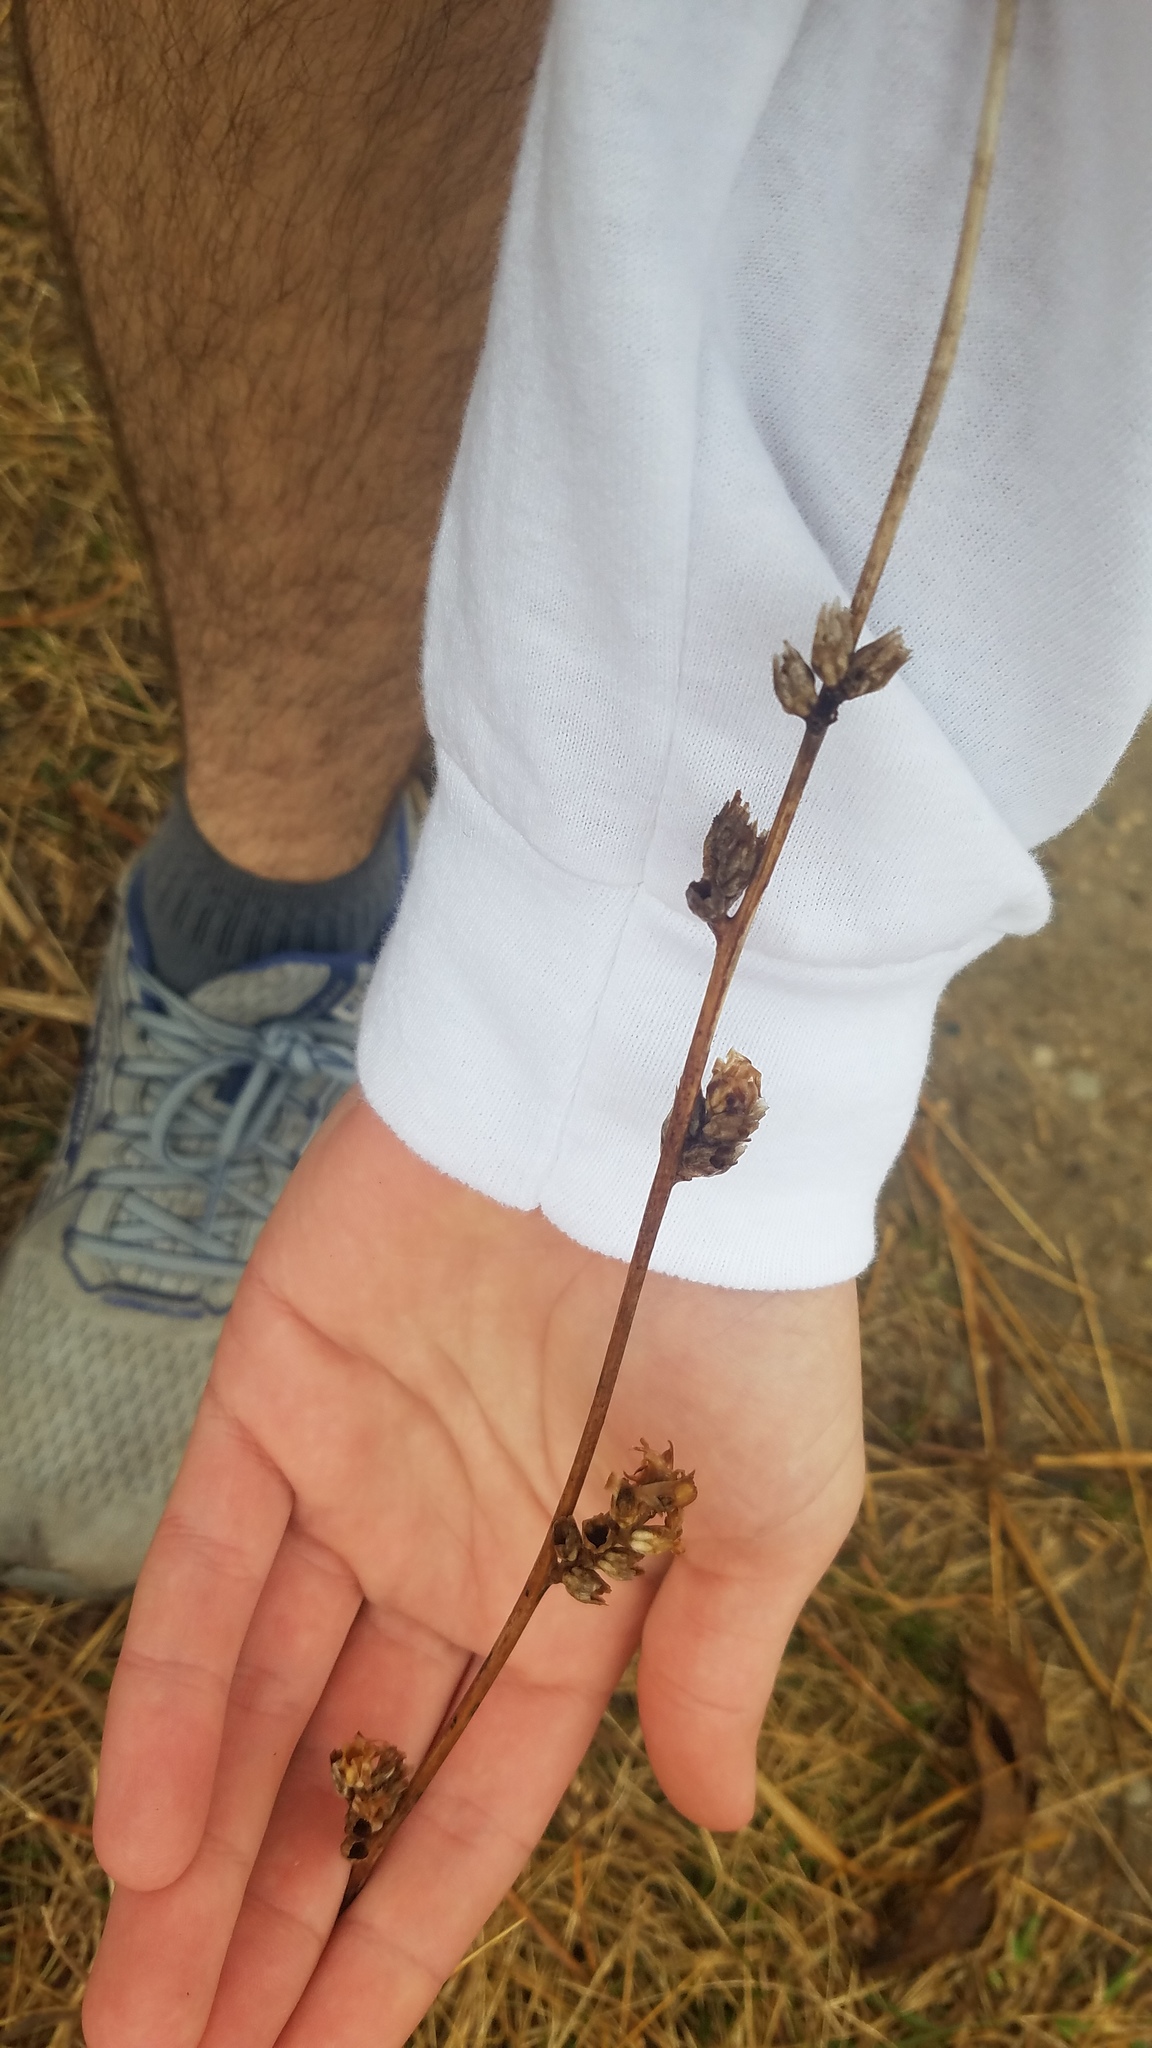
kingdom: Plantae
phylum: Tracheophyta
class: Magnoliopsida
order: Asterales
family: Asteraceae
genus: Cichorium
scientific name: Cichorium intybus
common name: Chicory
